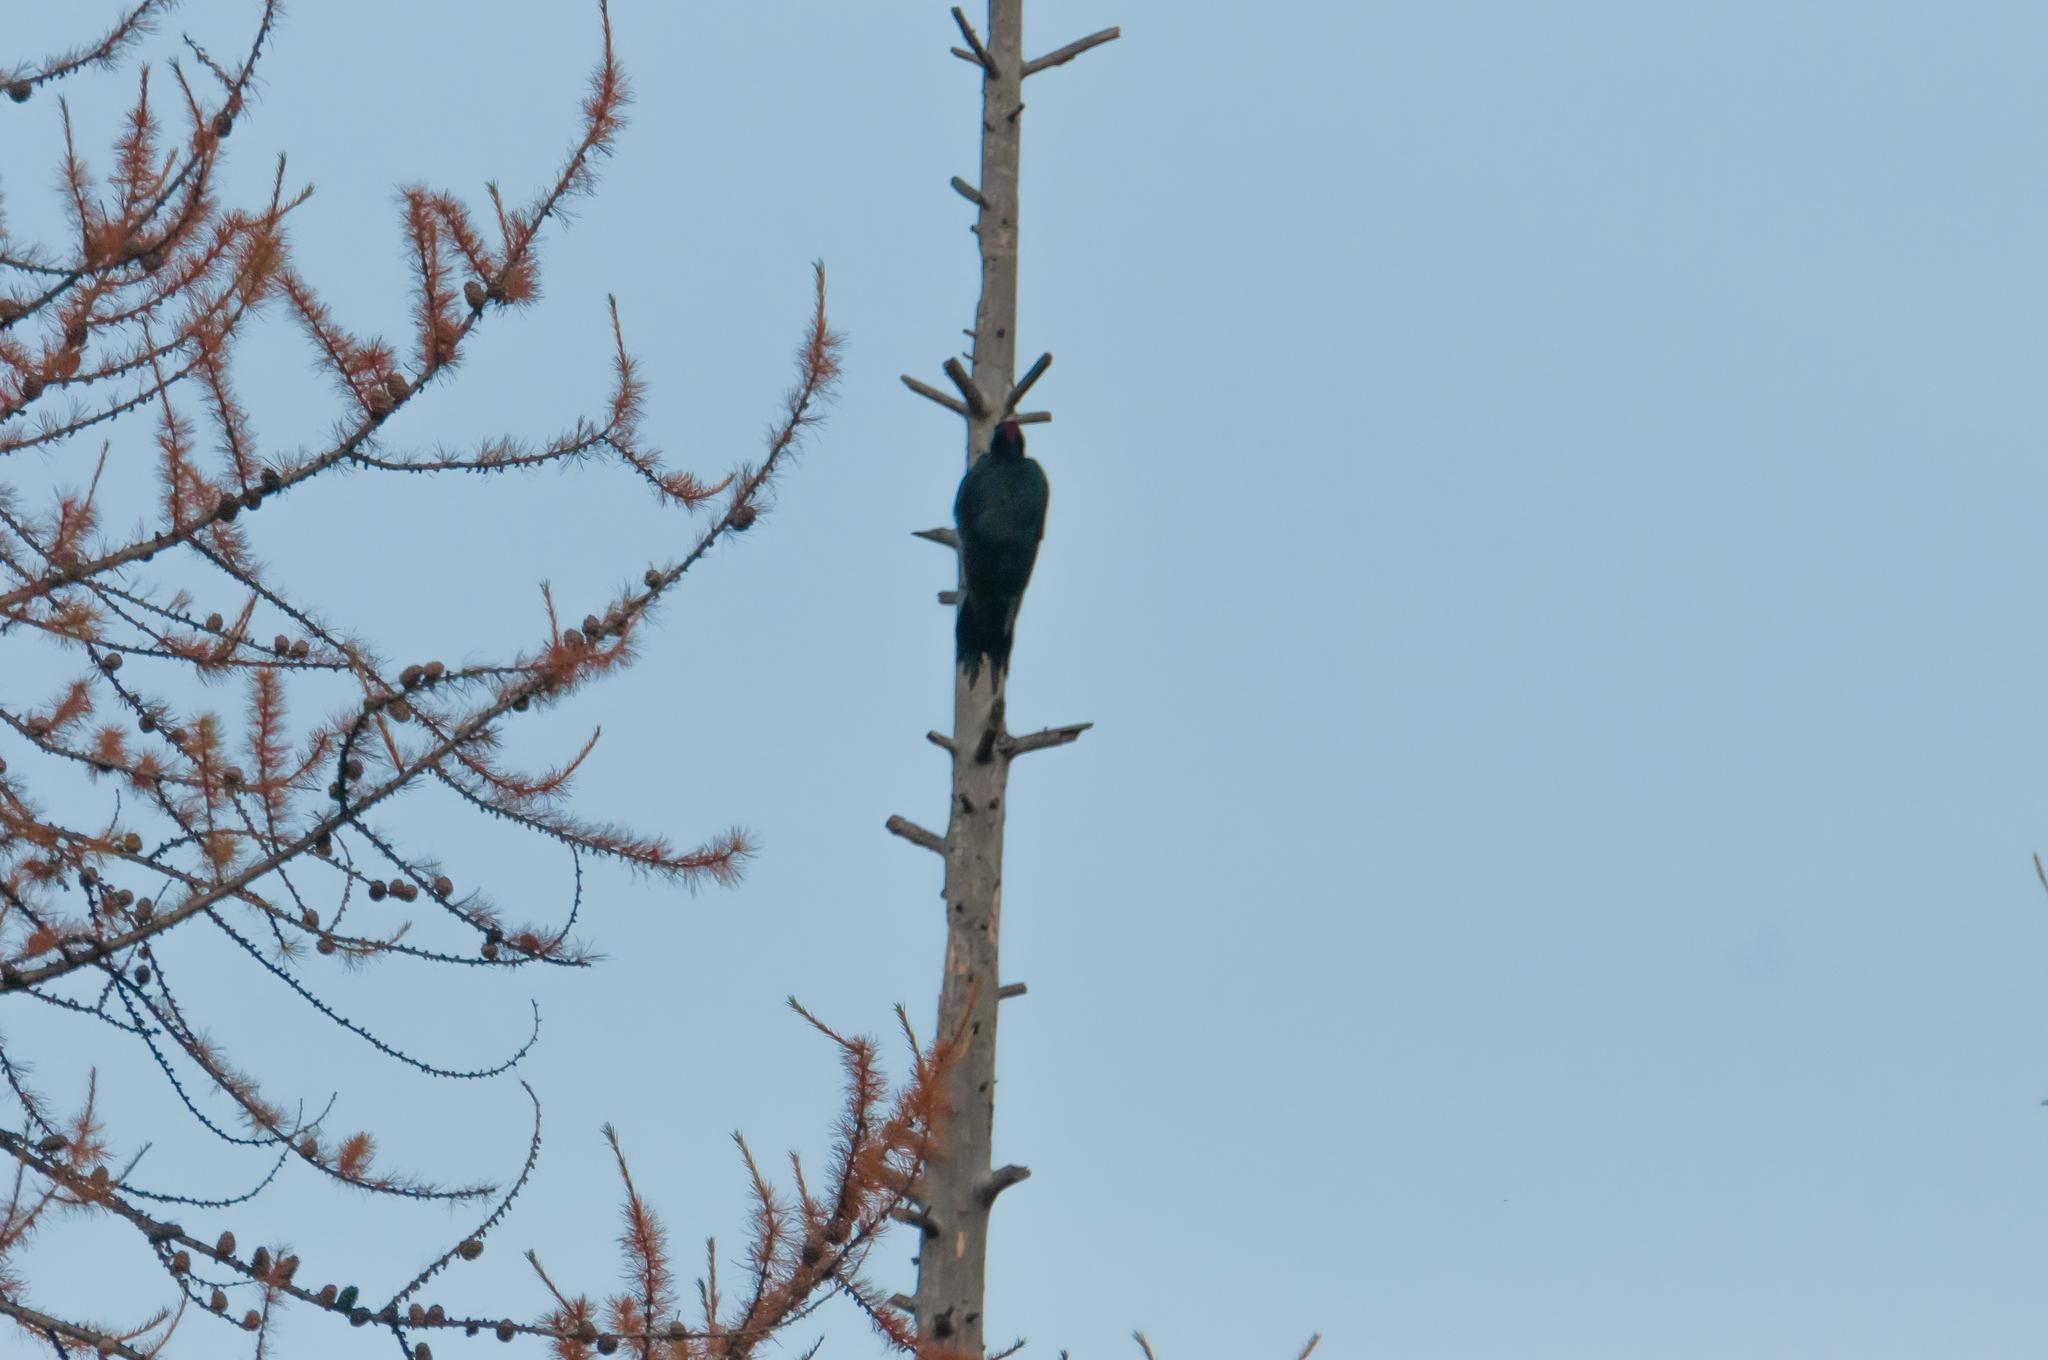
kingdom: Animalia
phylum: Chordata
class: Aves
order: Piciformes
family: Picidae
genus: Dryocopus
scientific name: Dryocopus martius
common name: Black woodpecker
